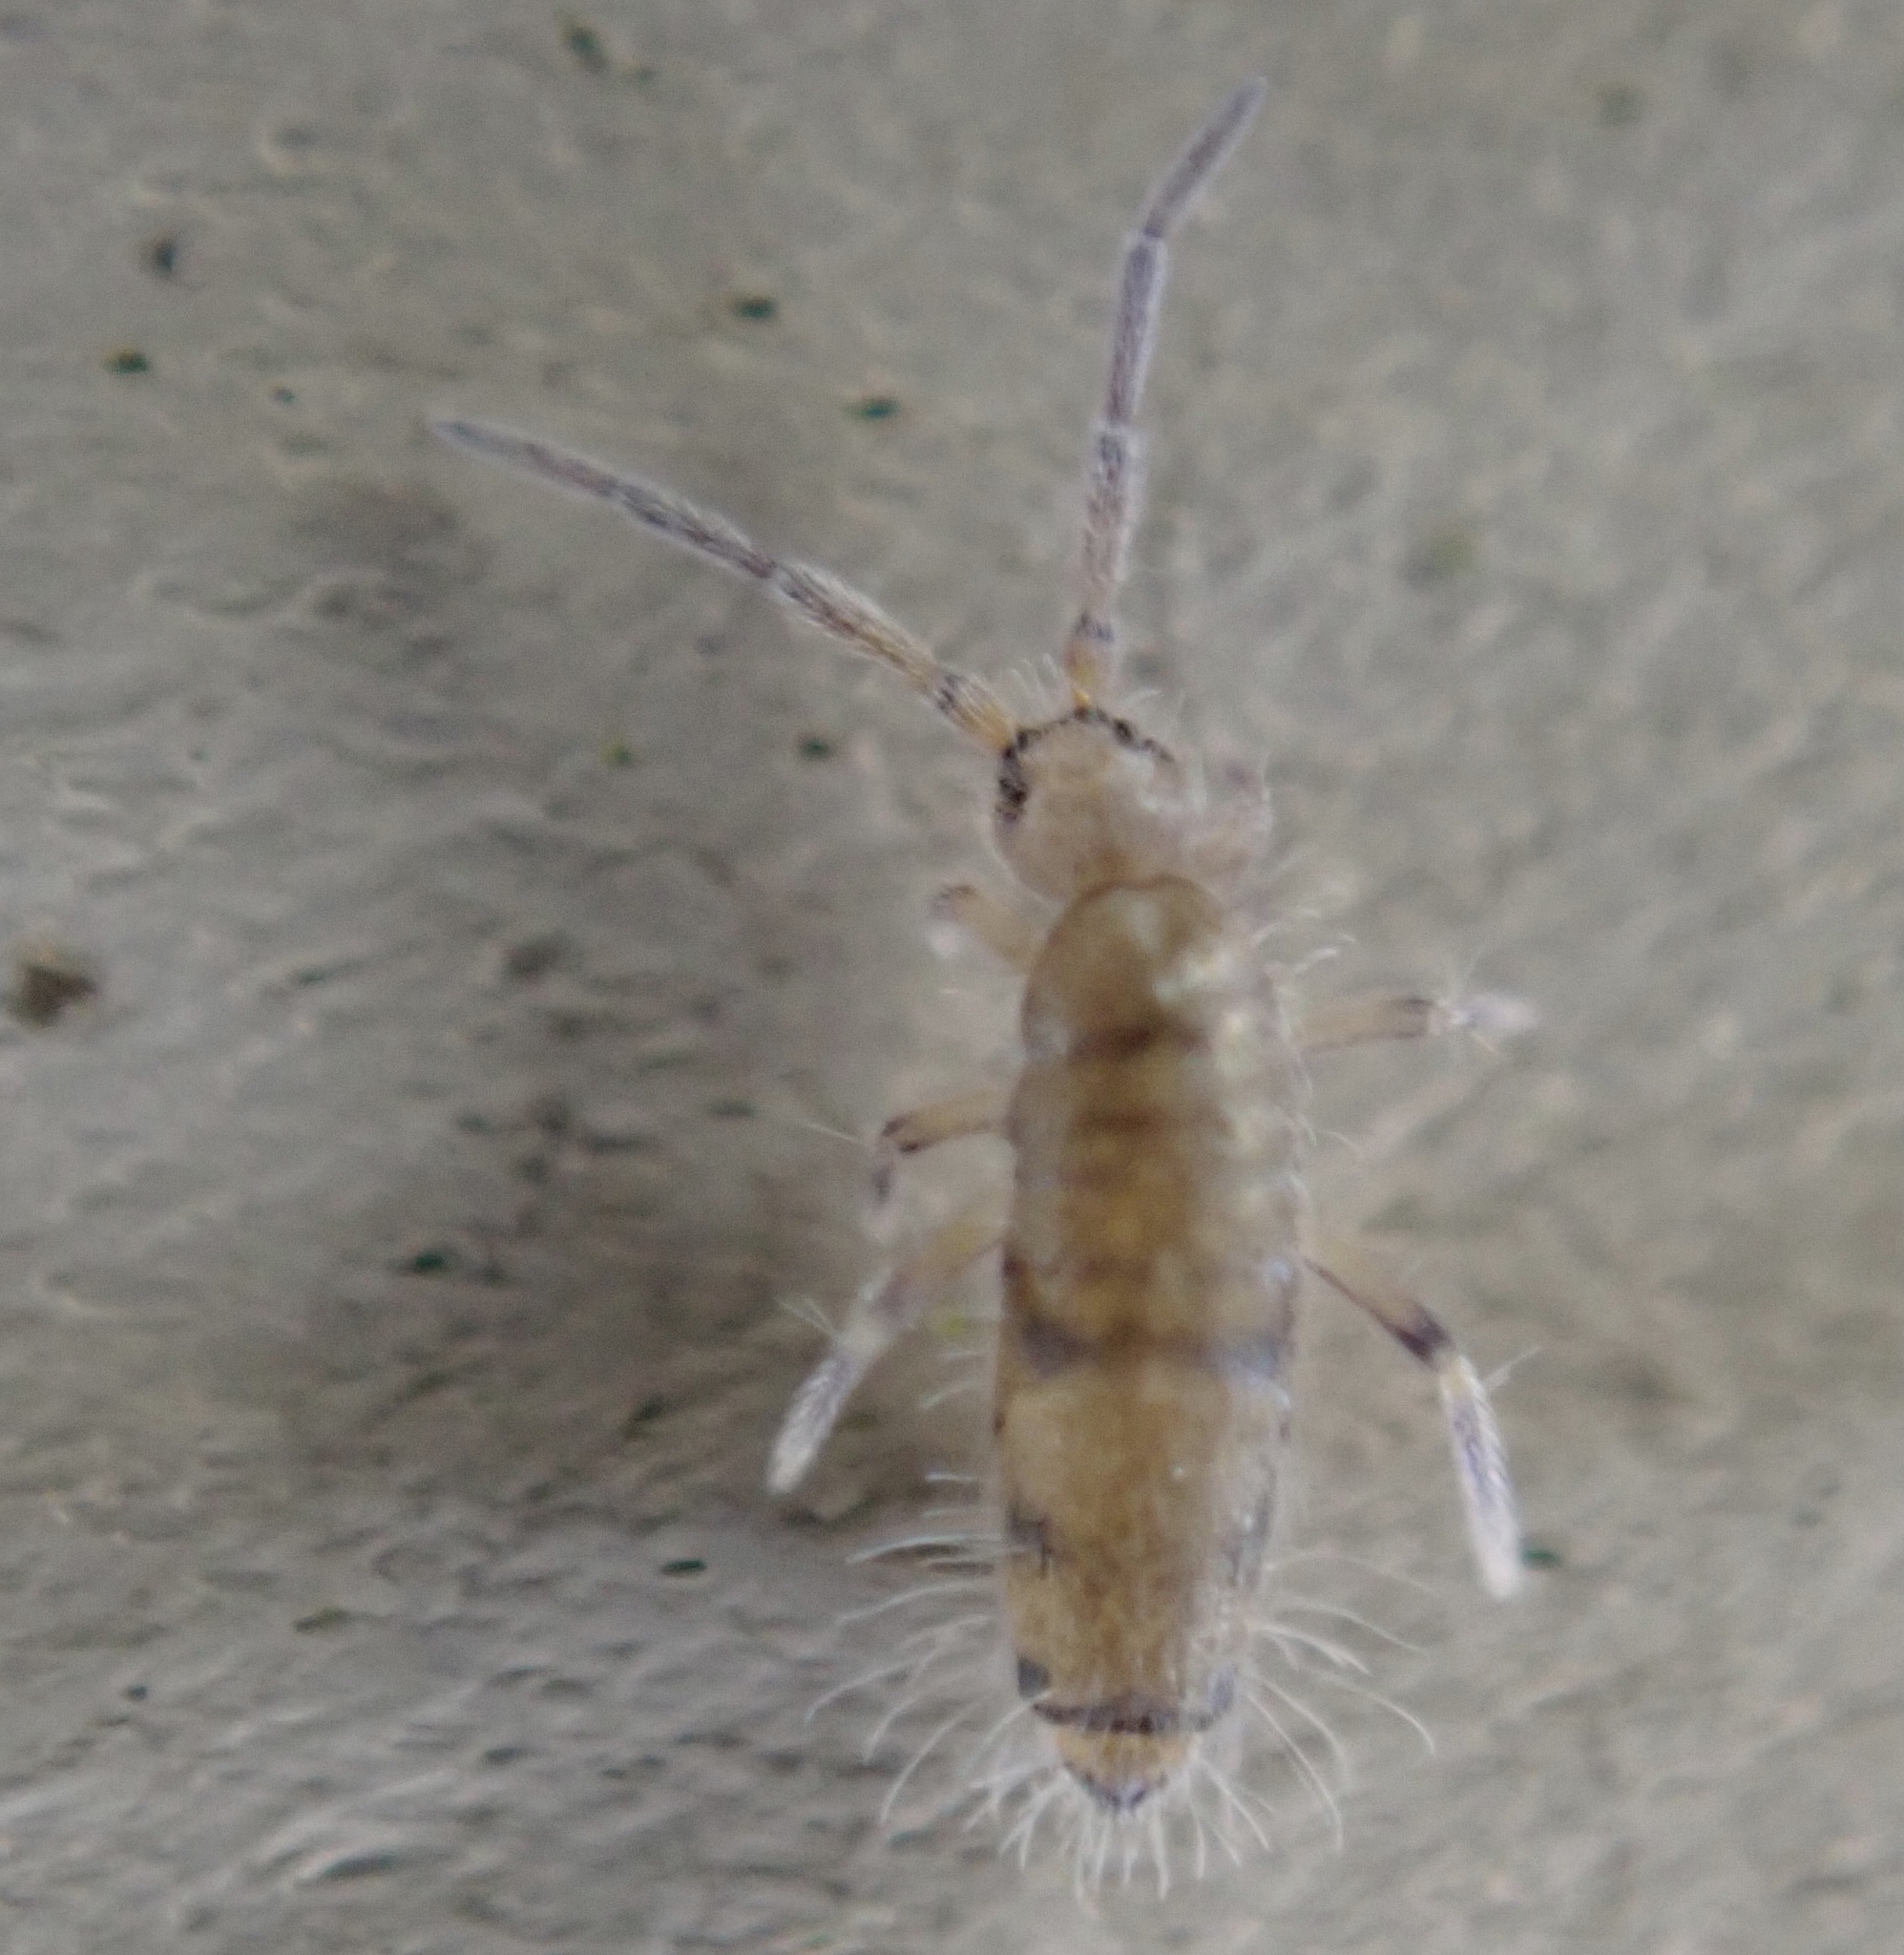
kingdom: Animalia
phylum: Arthropoda
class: Collembola
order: Entomobryomorpha
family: Entomobryidae
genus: Willowsia
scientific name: Willowsia nigromaculata
